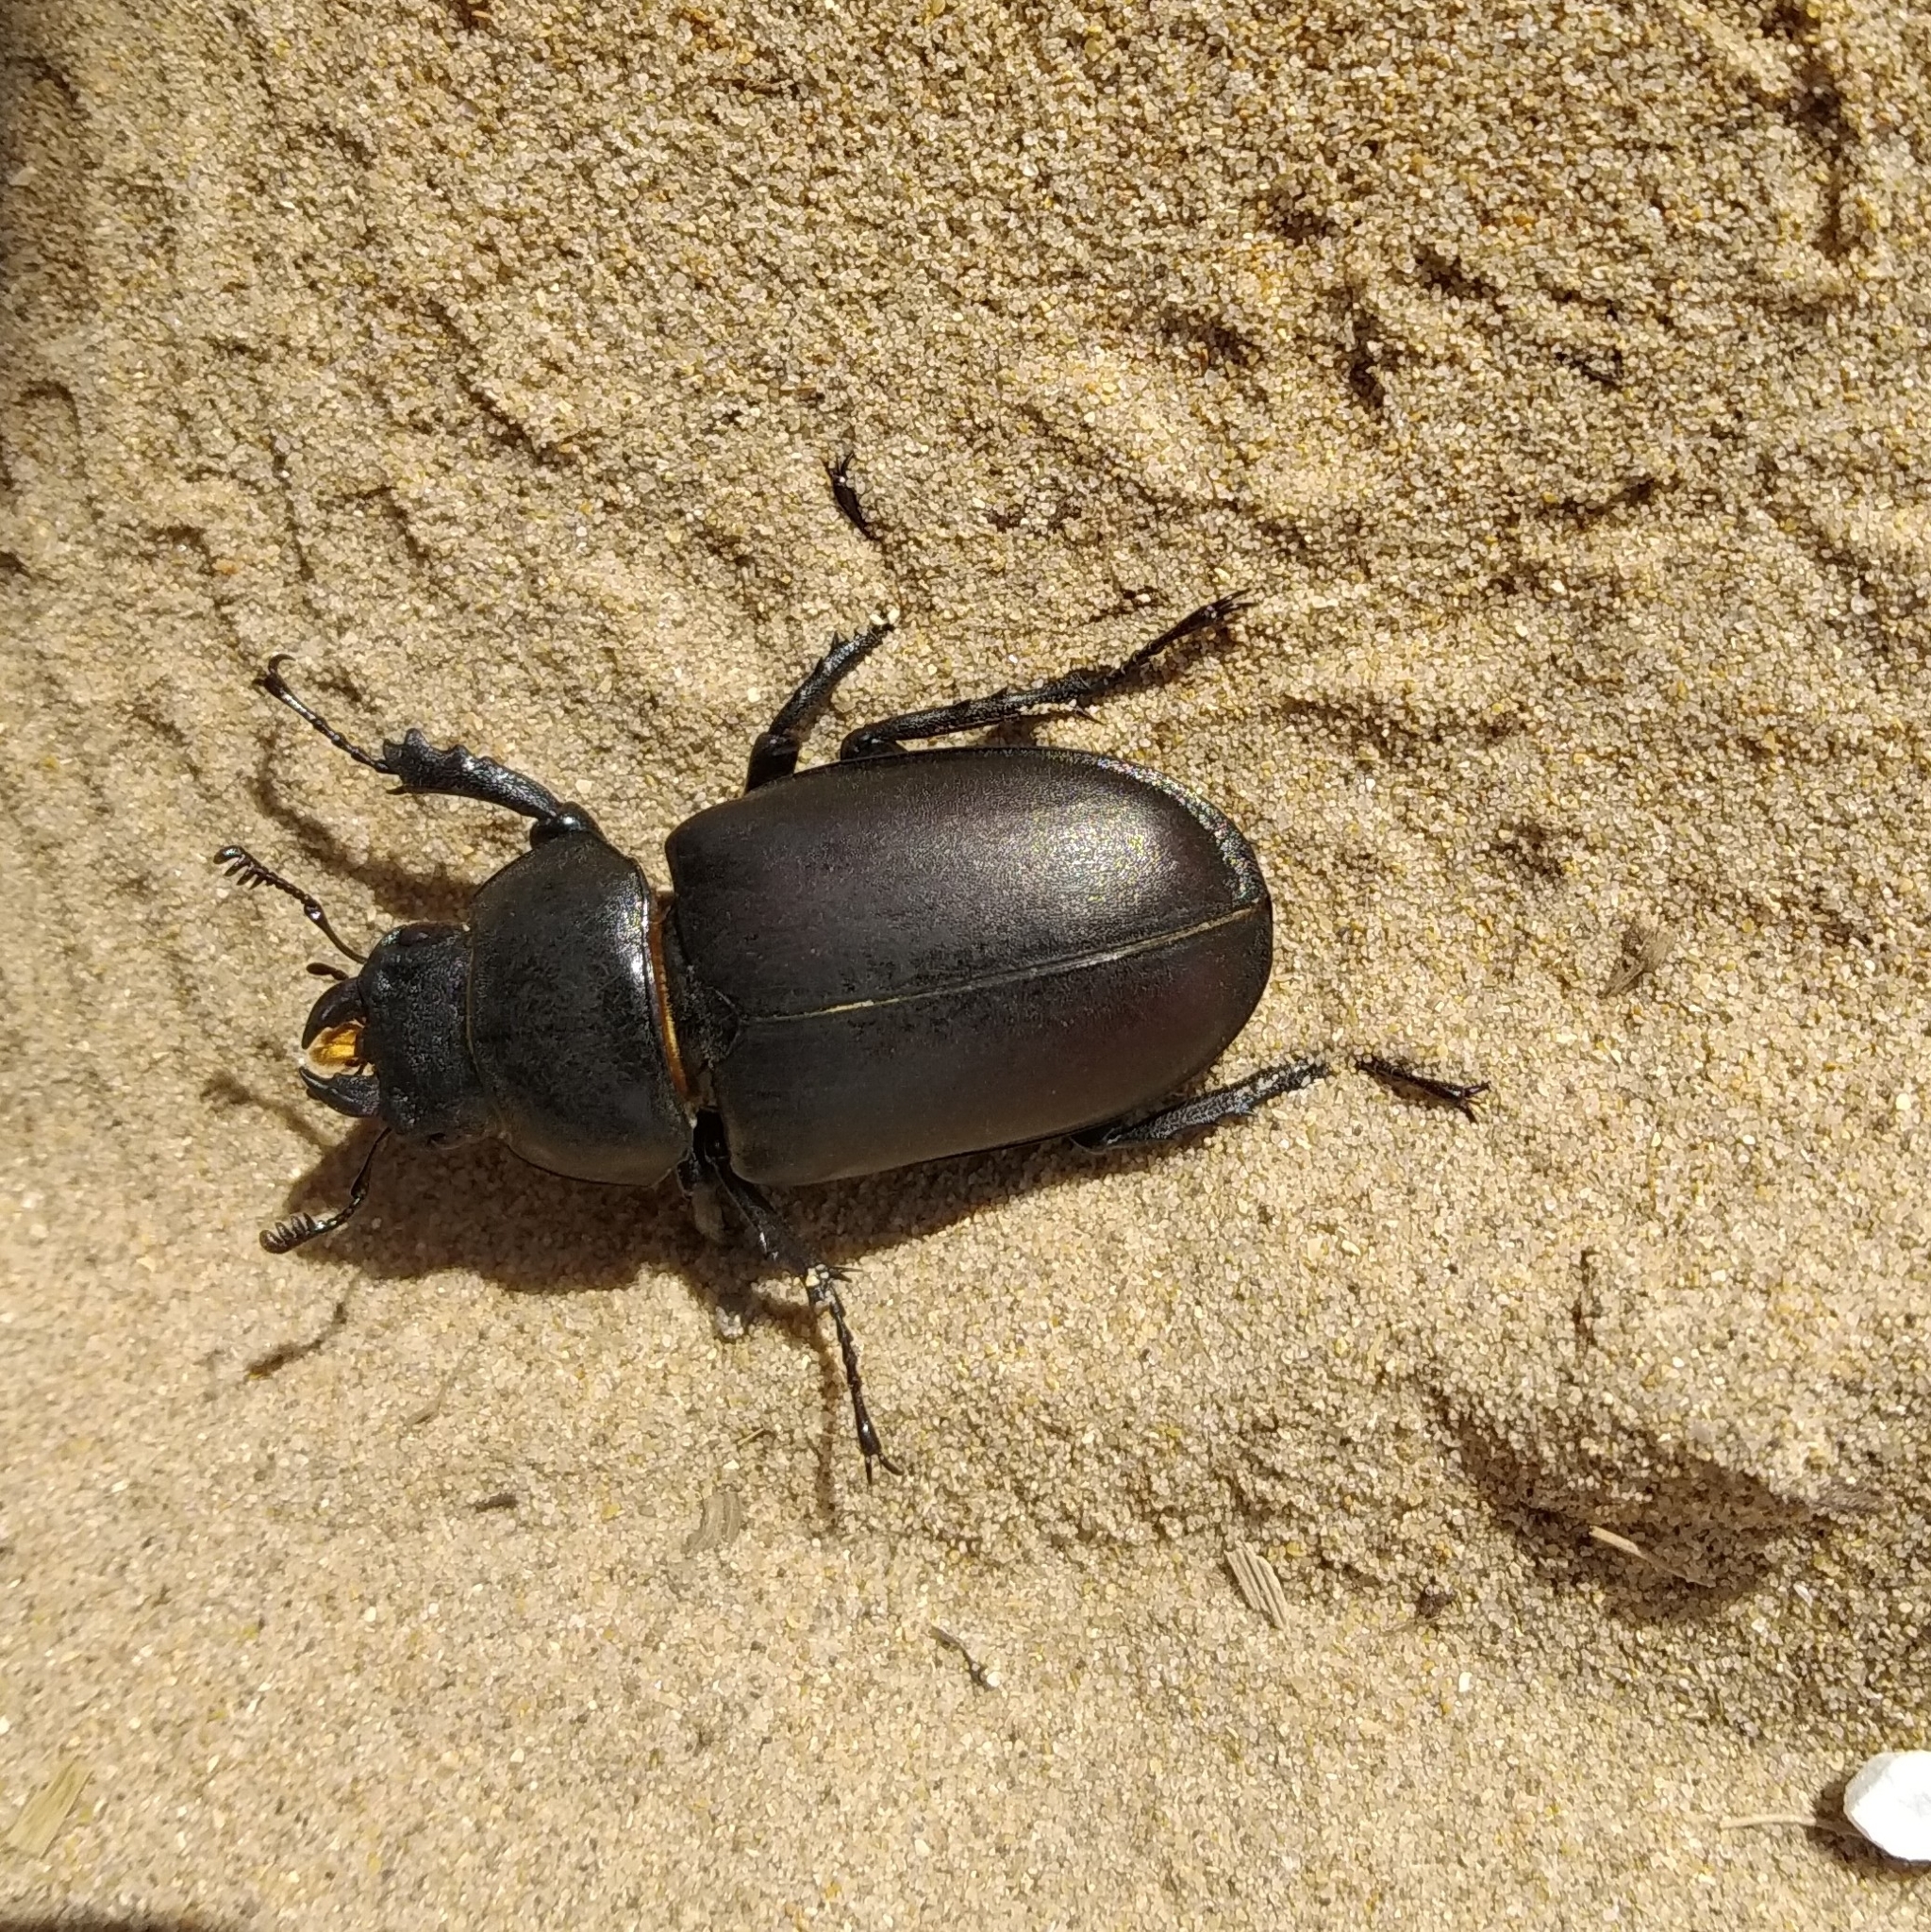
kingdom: Animalia
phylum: Arthropoda
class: Insecta
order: Coleoptera
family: Lucanidae
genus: Lucanus
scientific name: Lucanus cervus
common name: Stag beetle
